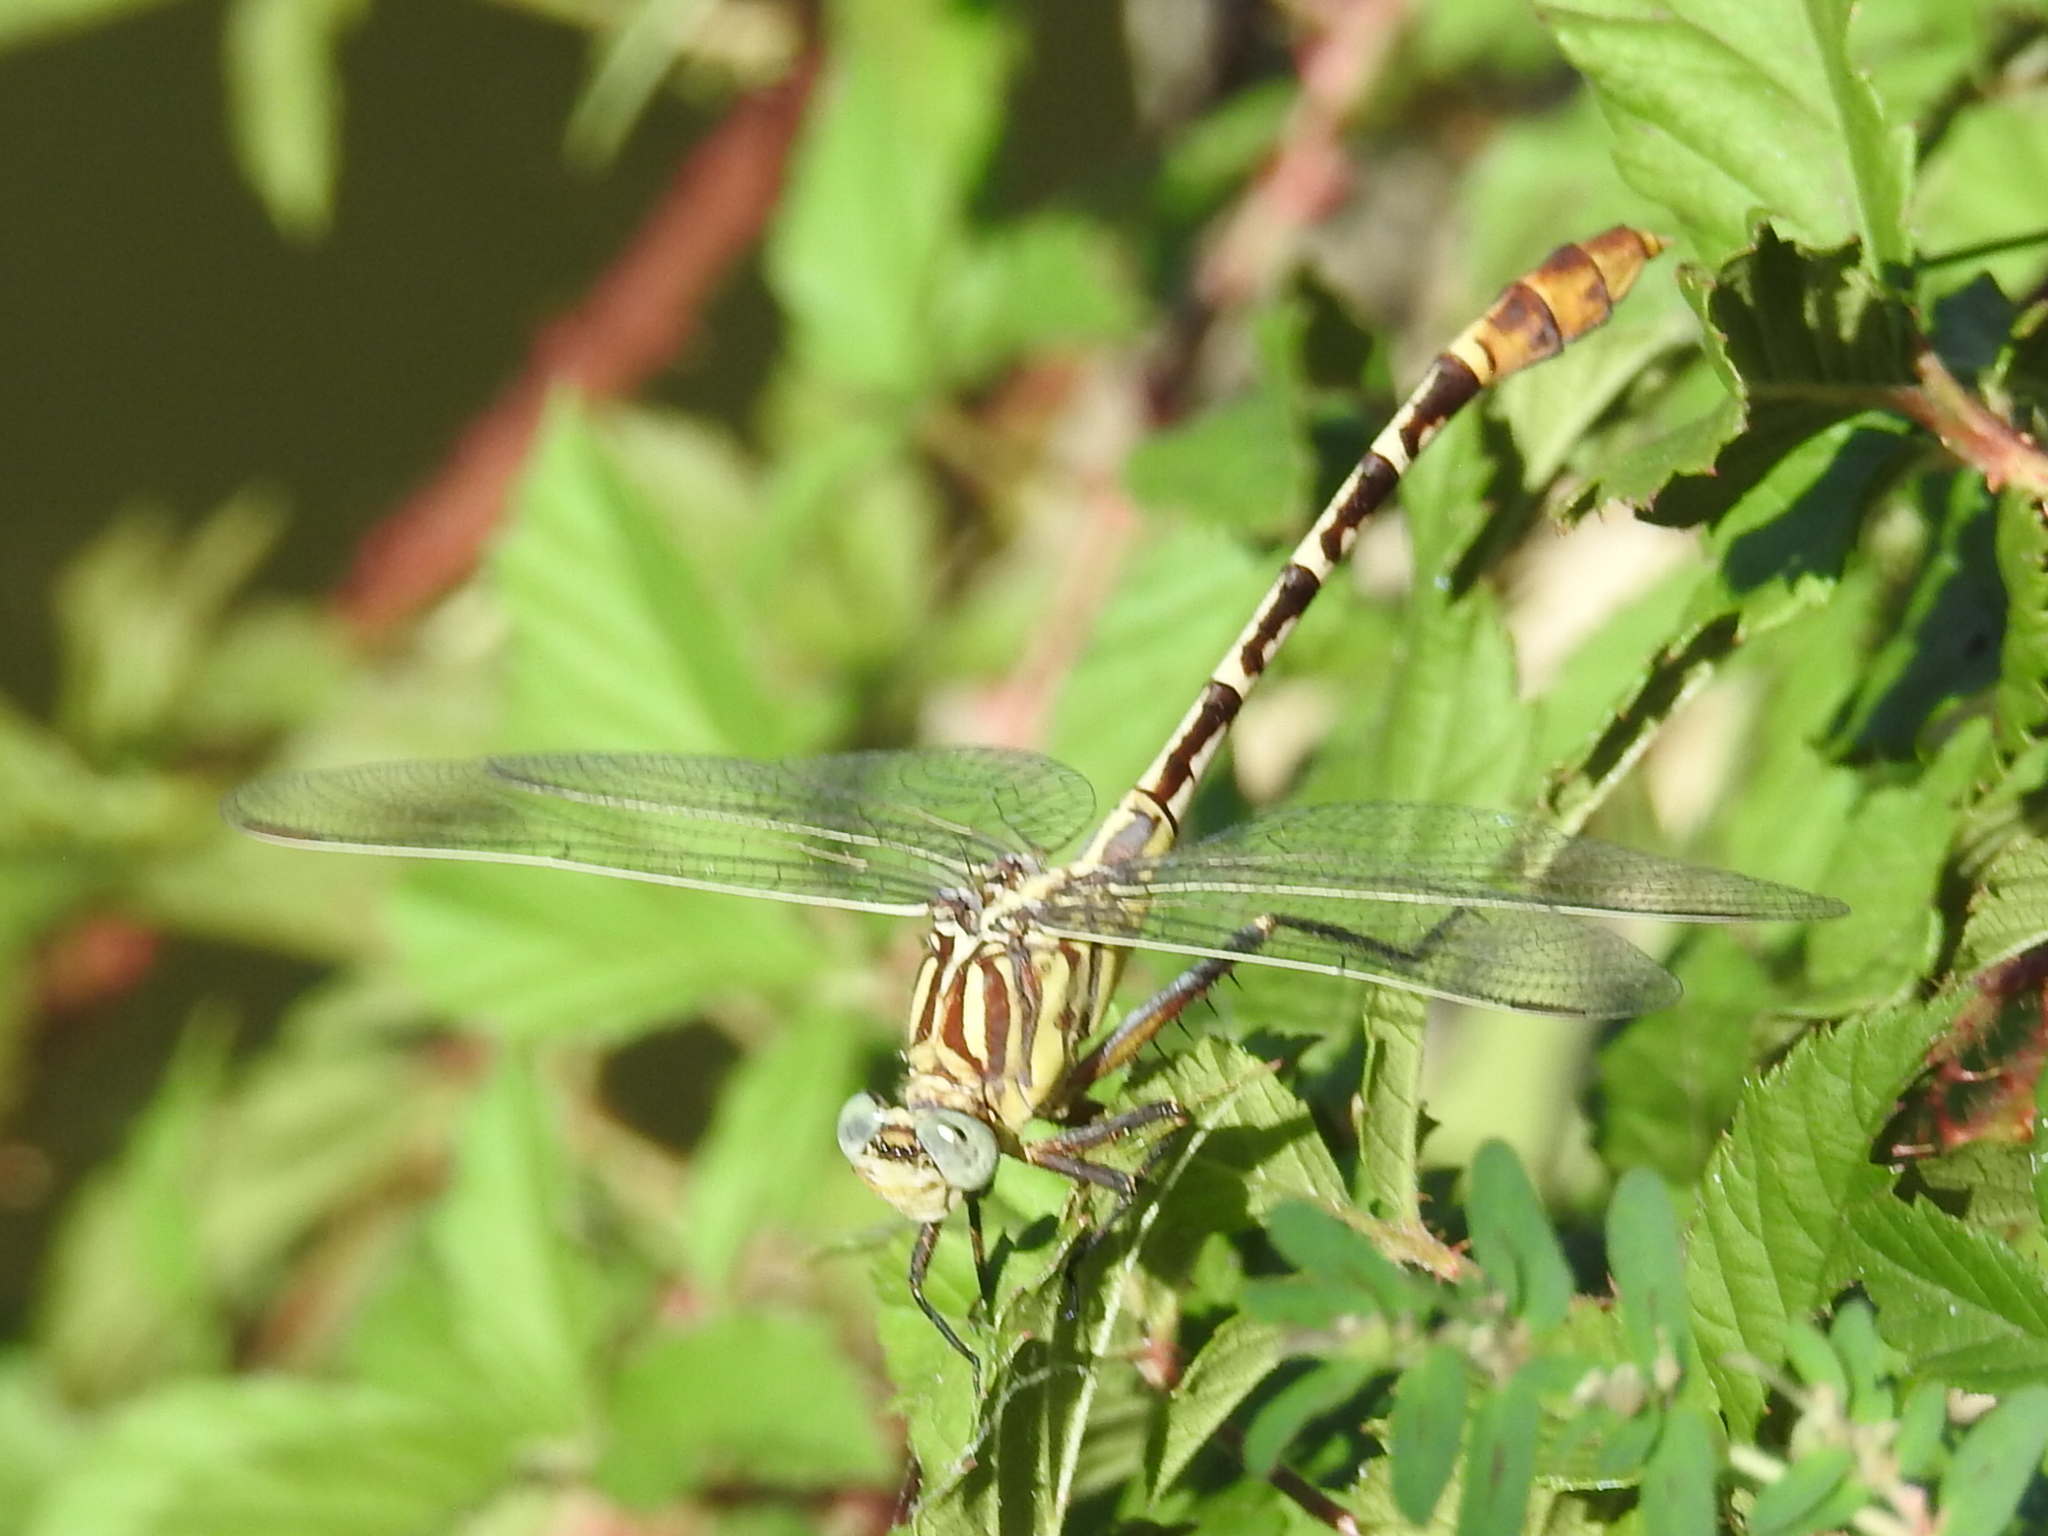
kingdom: Animalia
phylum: Arthropoda
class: Insecta
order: Odonata
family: Gomphidae
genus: Dromogomphus
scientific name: Dromogomphus spoliatus
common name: Flag-tailed spinyleg
